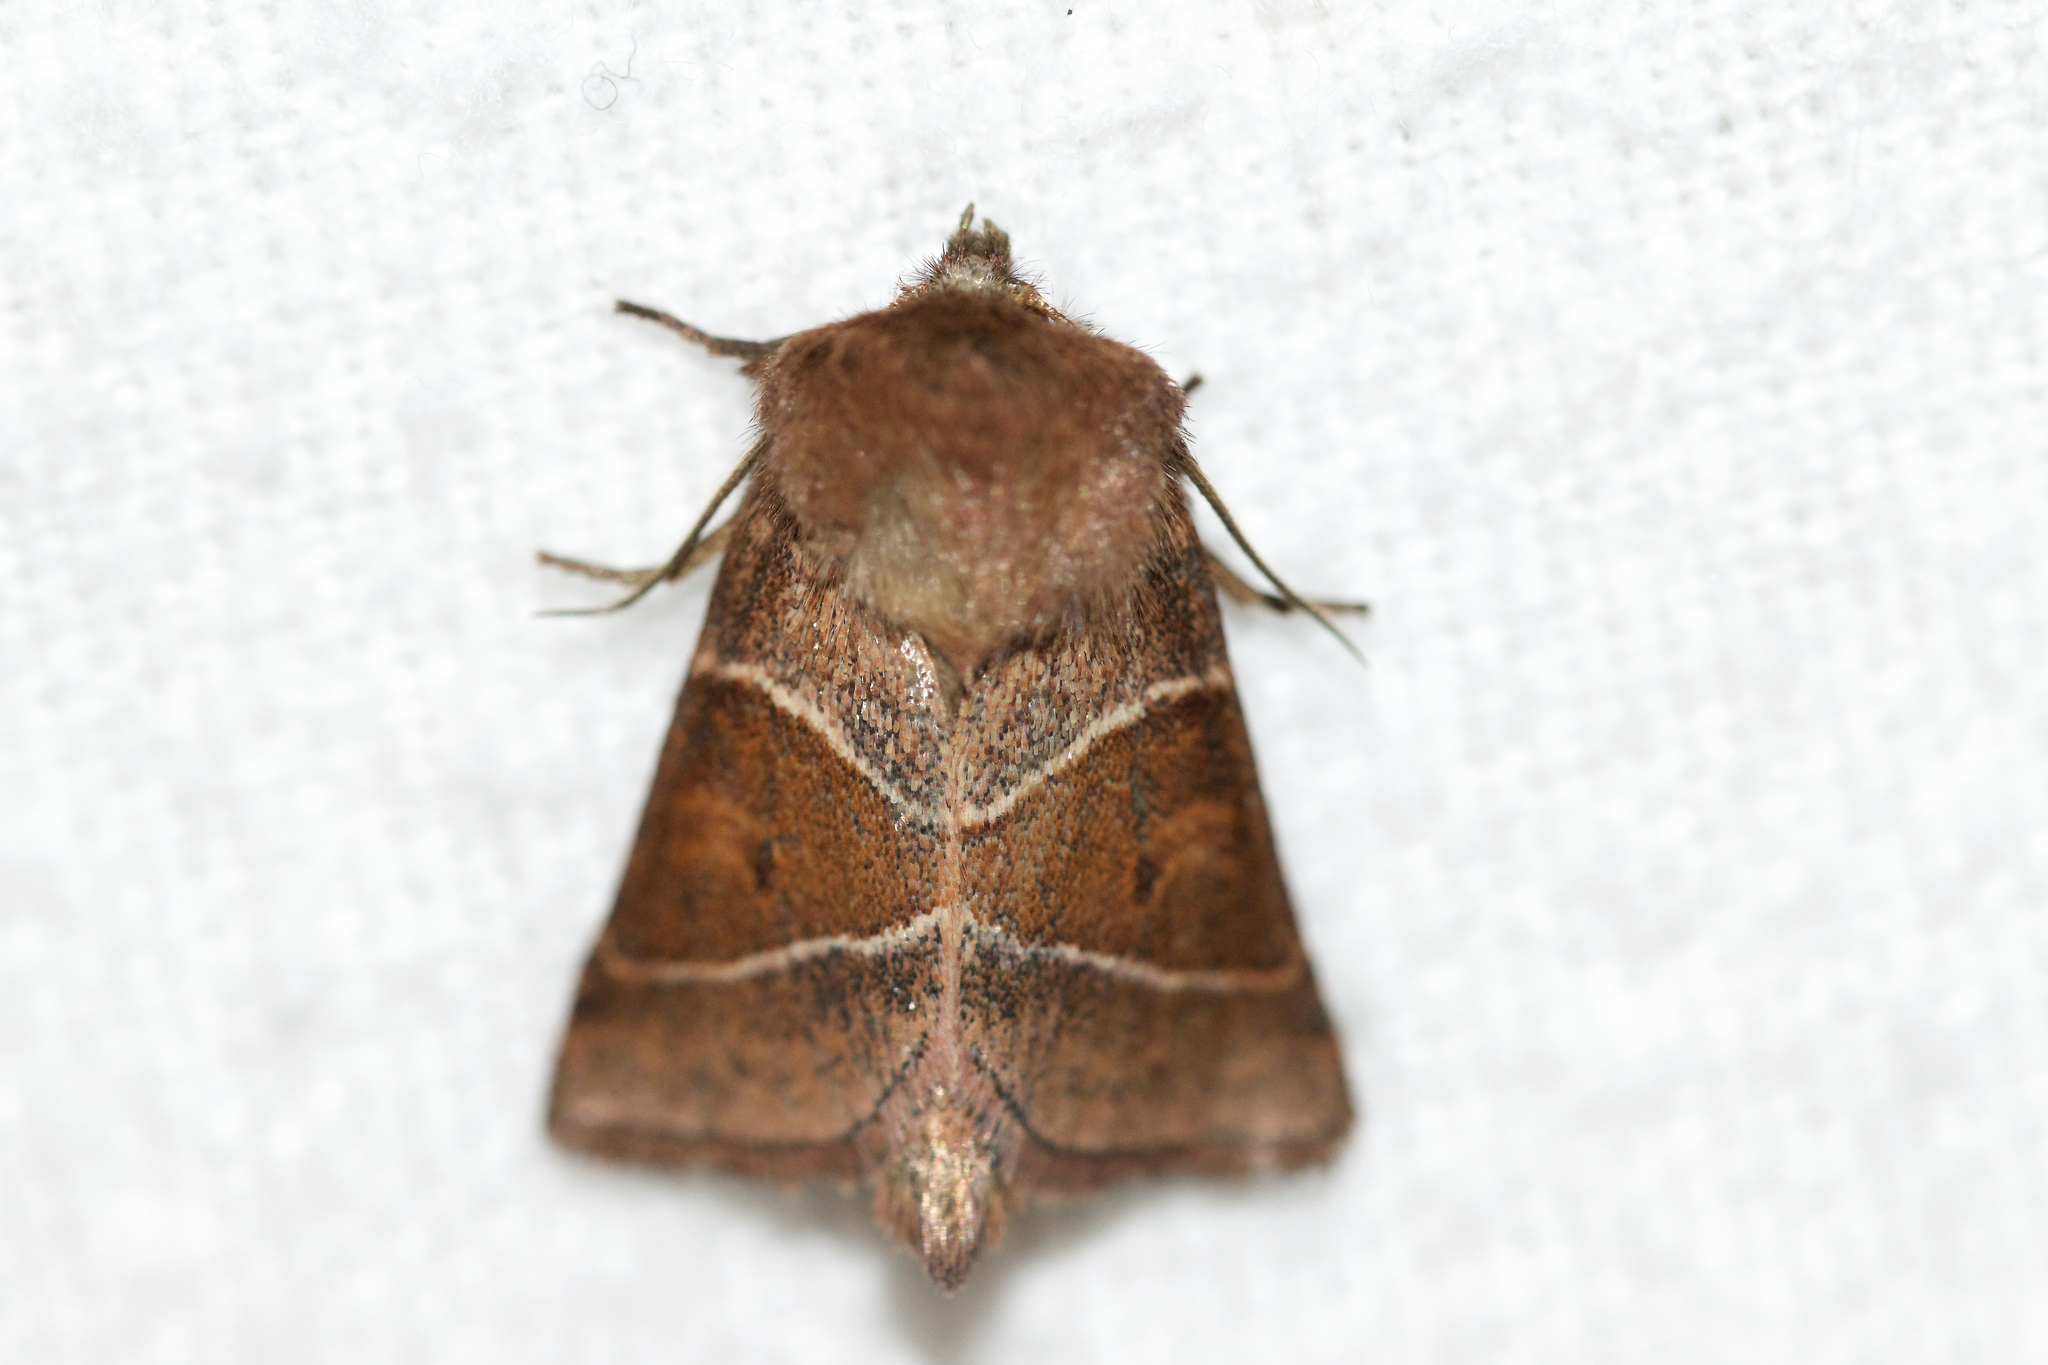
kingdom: Animalia
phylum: Arthropoda
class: Insecta
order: Lepidoptera
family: Noctuidae
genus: Lemmeria
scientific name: Lemmeria digitalis
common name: Fingered lemmeria moth
